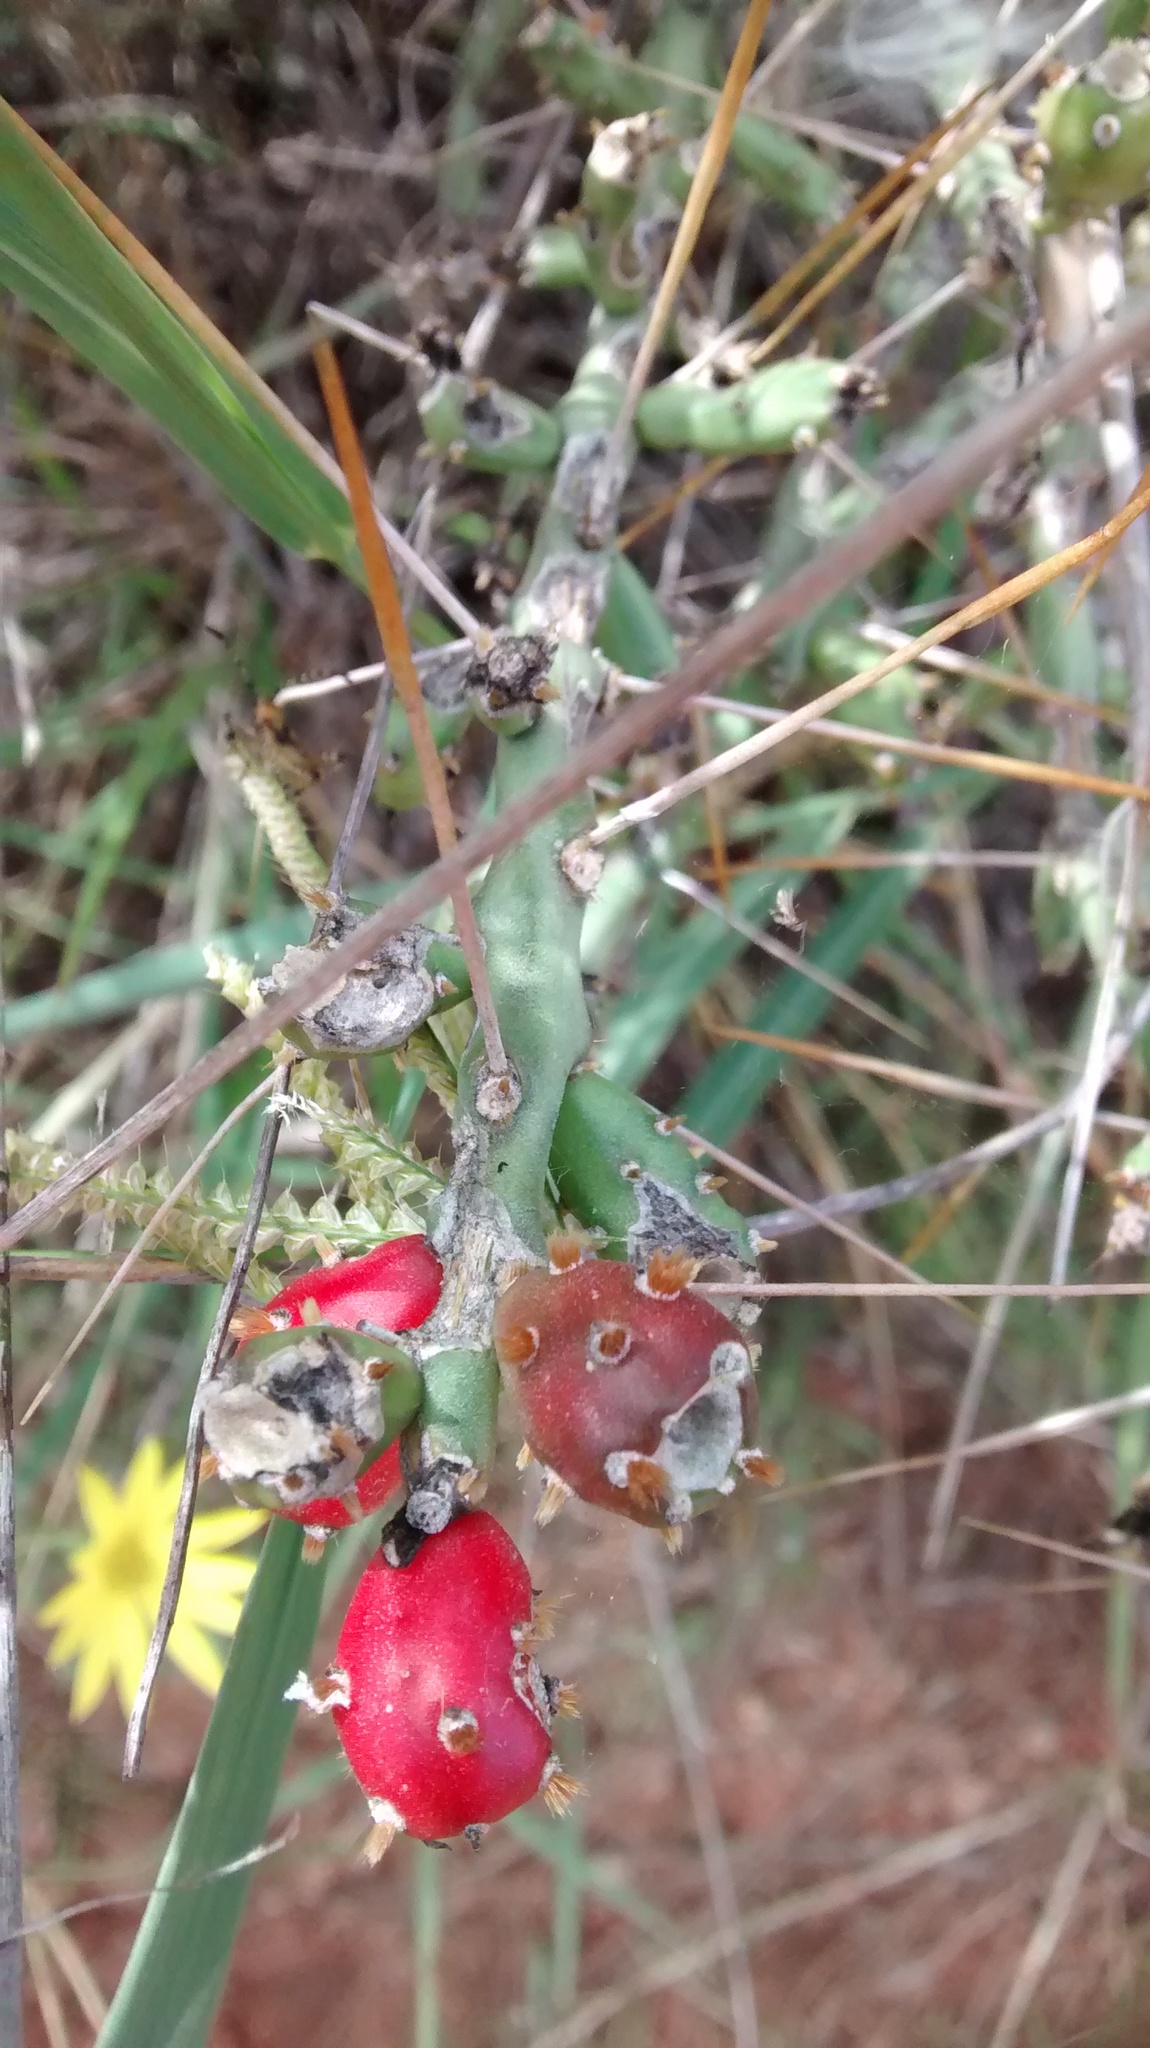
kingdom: Plantae
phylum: Tracheophyta
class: Magnoliopsida
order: Caryophyllales
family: Cactaceae
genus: Cylindropuntia
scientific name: Cylindropuntia leptocaulis
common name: Christmas cactus
